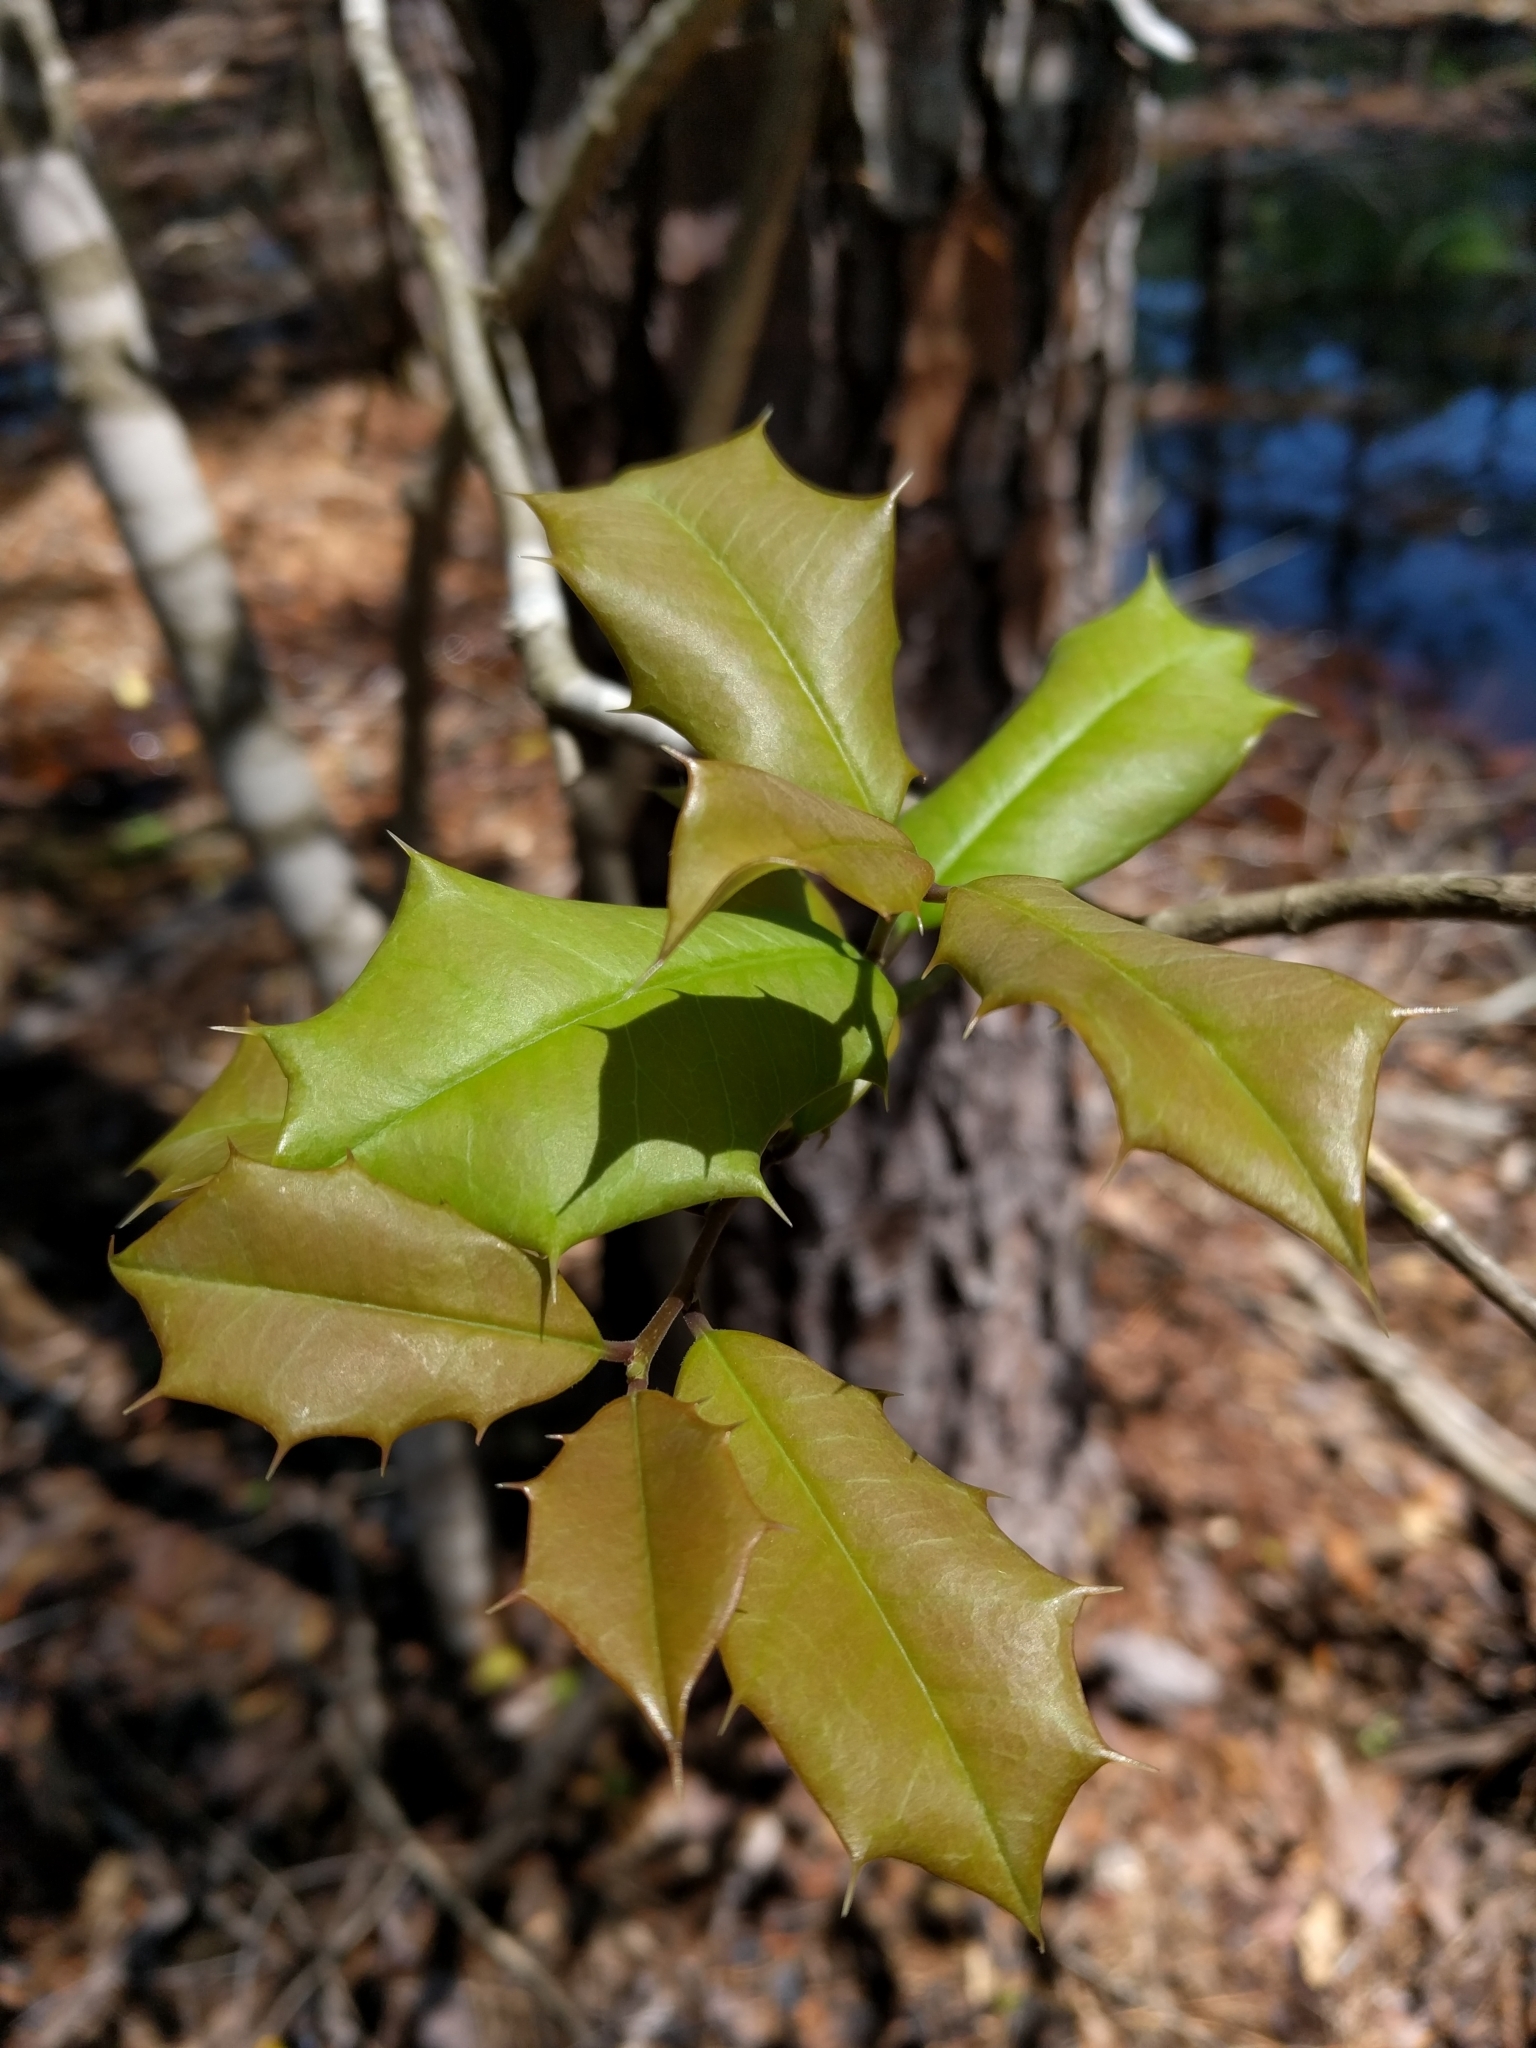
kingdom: Plantae
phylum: Tracheophyta
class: Magnoliopsida
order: Aquifoliales
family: Aquifoliaceae
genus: Ilex
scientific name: Ilex opaca
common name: American holly
